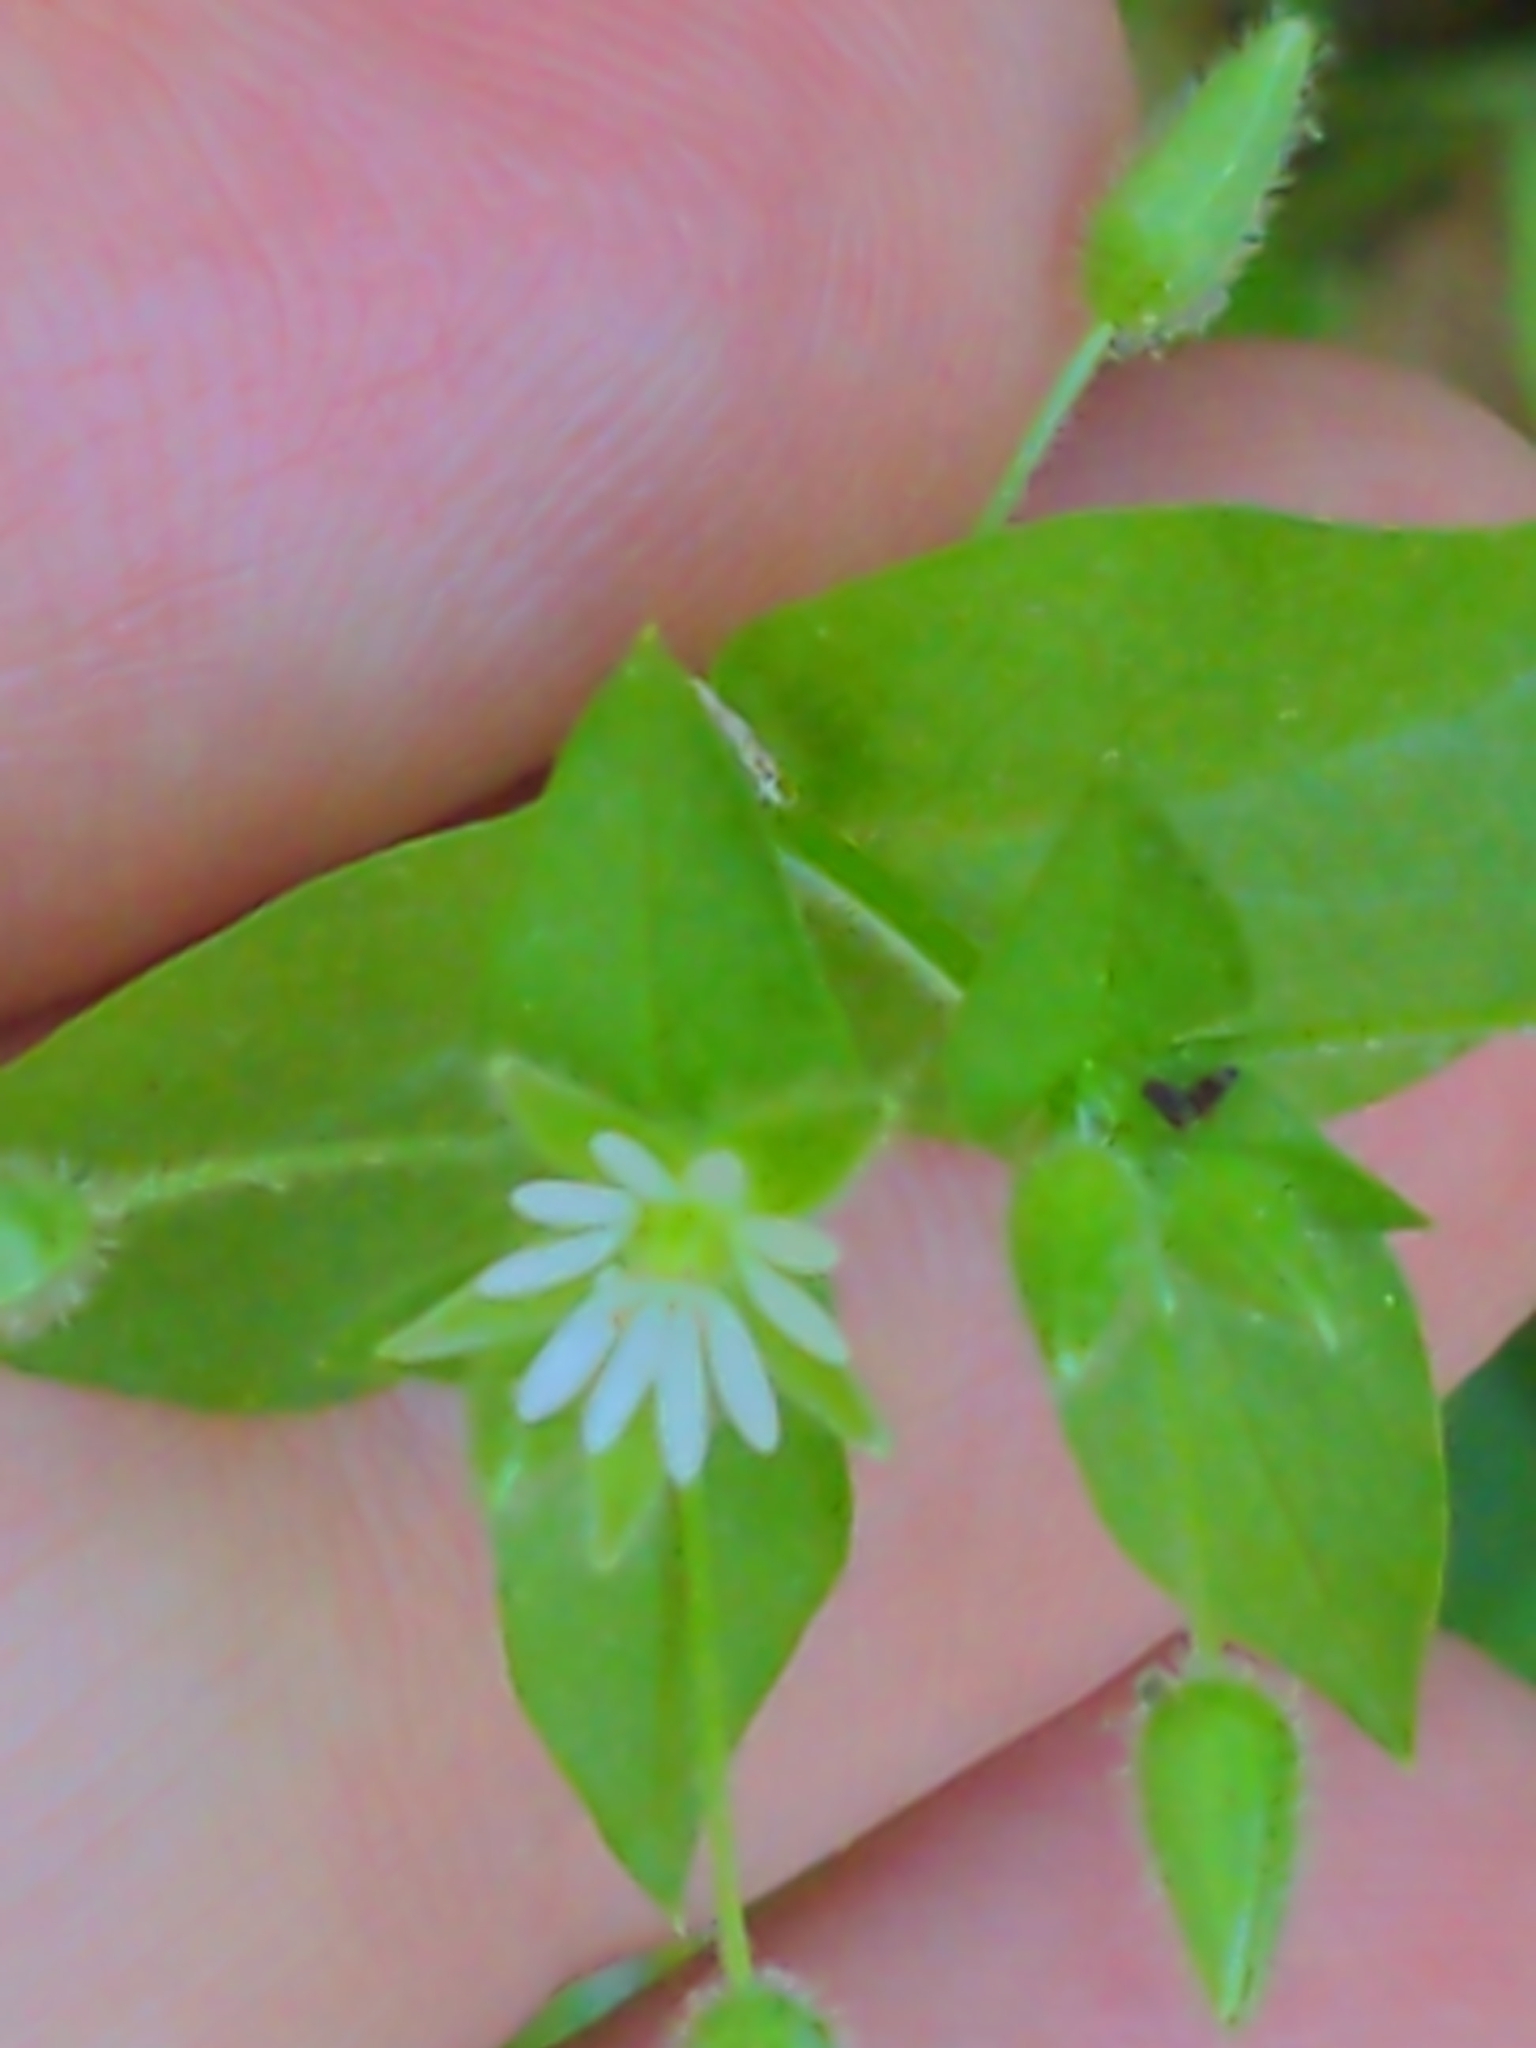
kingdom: Plantae
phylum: Tracheophyta
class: Magnoliopsida
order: Caryophyllales
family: Caryophyllaceae
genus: Stellaria
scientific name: Stellaria media
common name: Common chickweed
